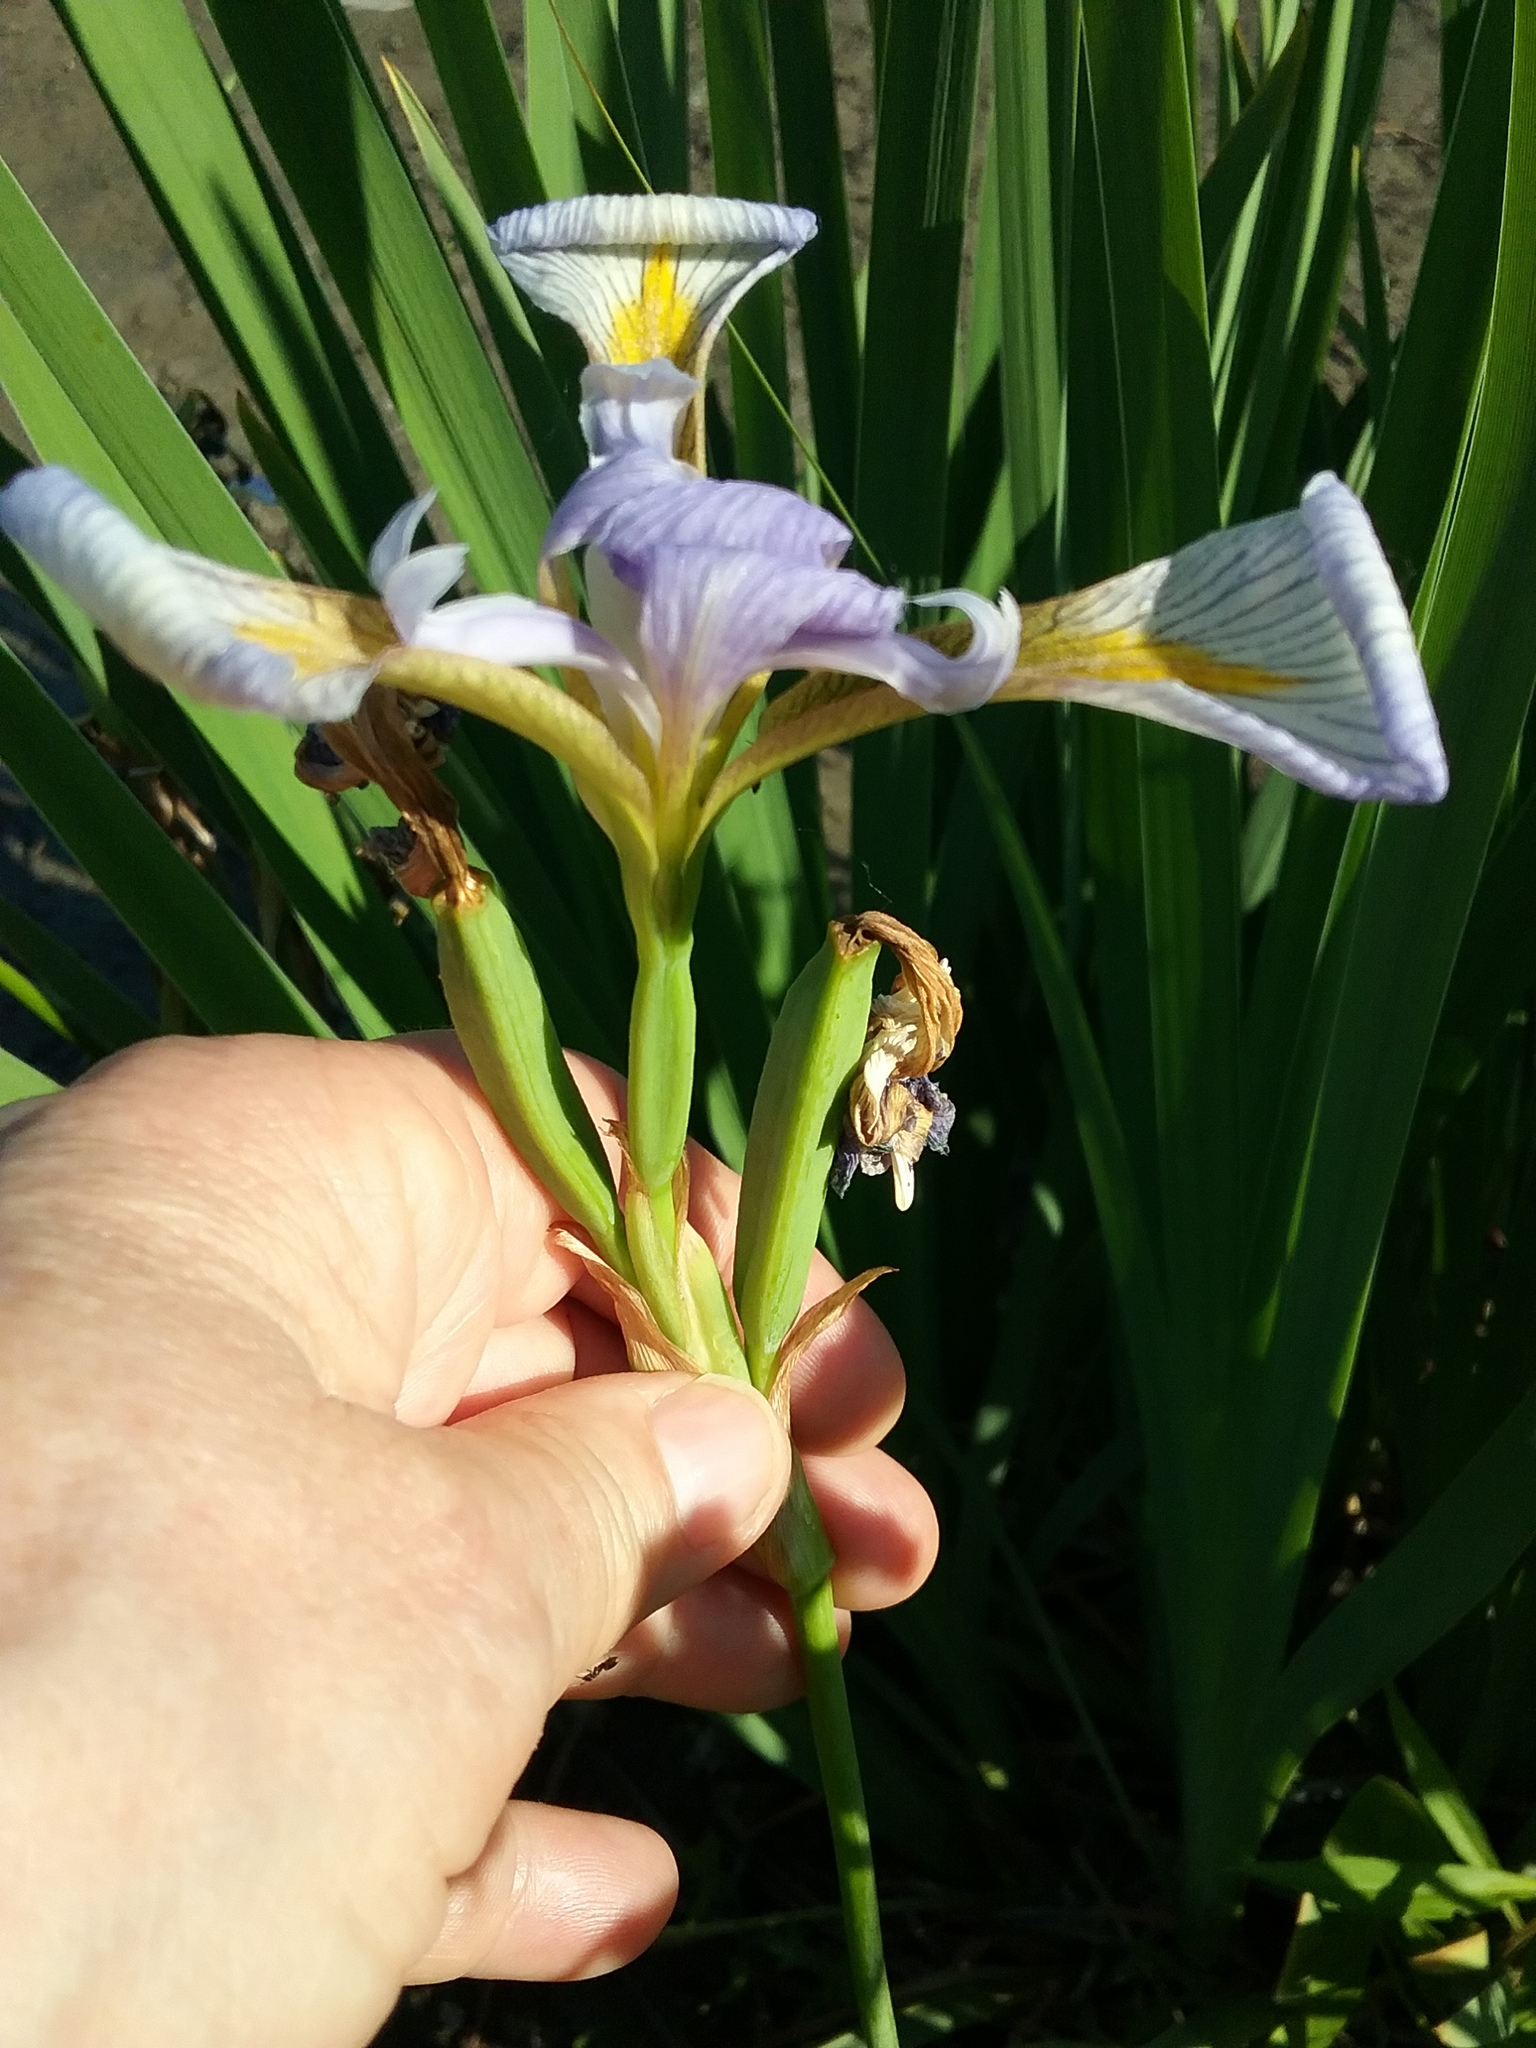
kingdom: Plantae
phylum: Tracheophyta
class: Liliopsida
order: Asparagales
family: Iridaceae
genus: Iris
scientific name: Iris virginica
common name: Southern blue flag
